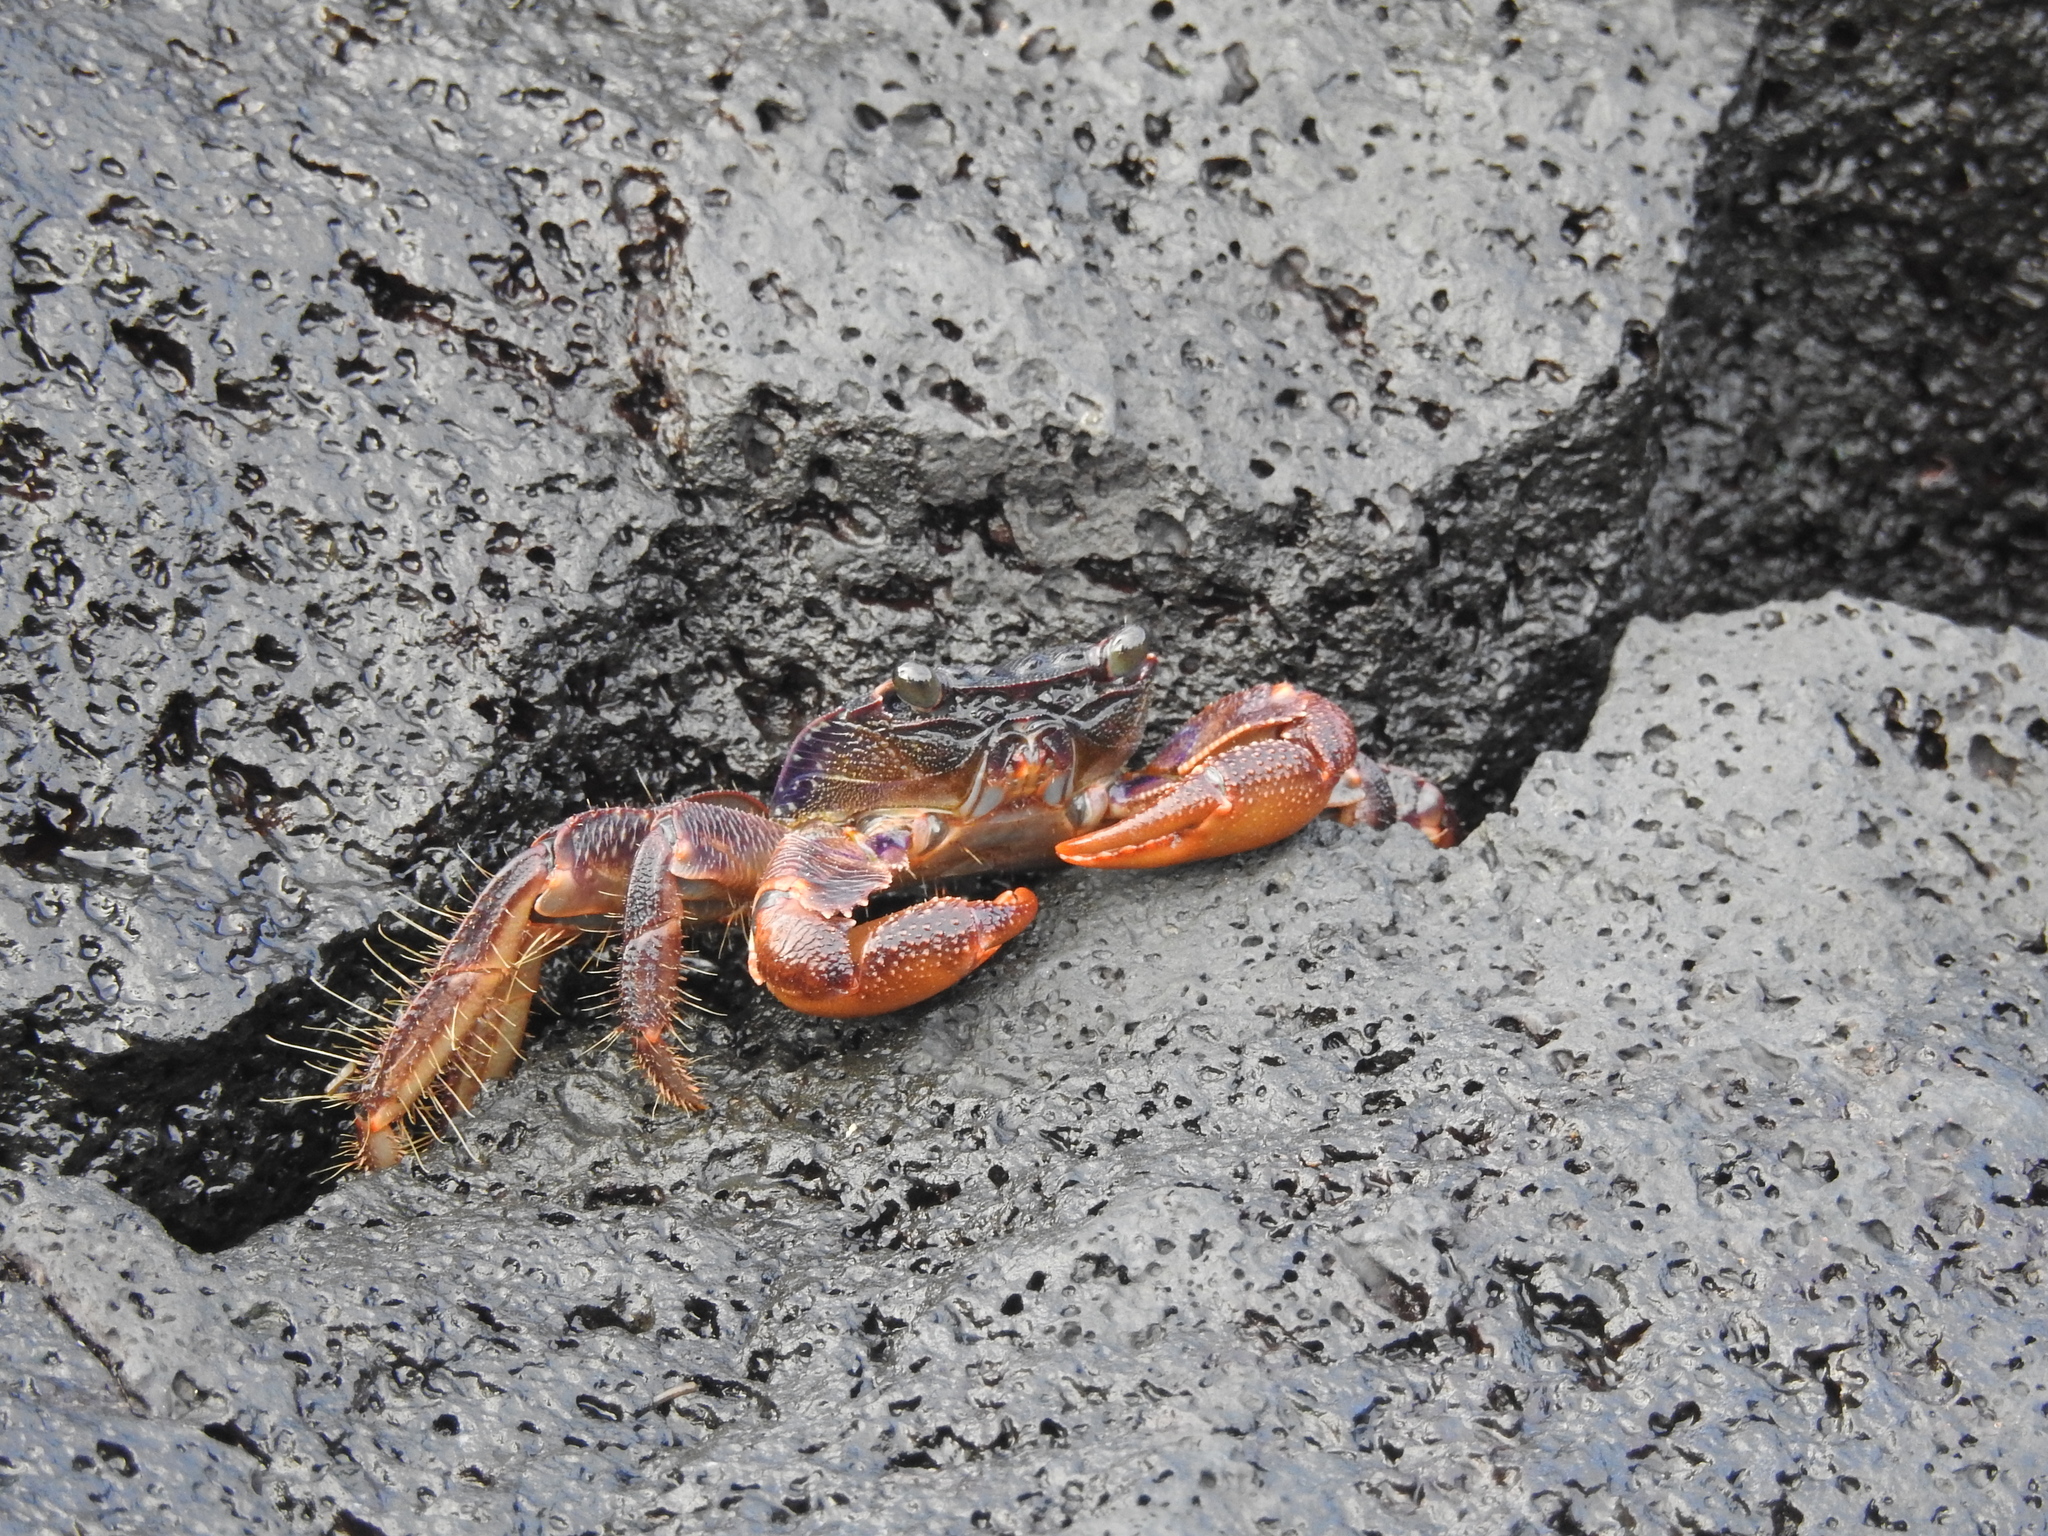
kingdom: Animalia
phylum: Arthropoda
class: Malacostraca
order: Decapoda
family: Grapsidae
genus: Grapsus
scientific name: Grapsus grapsus
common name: Sally lightfoot
